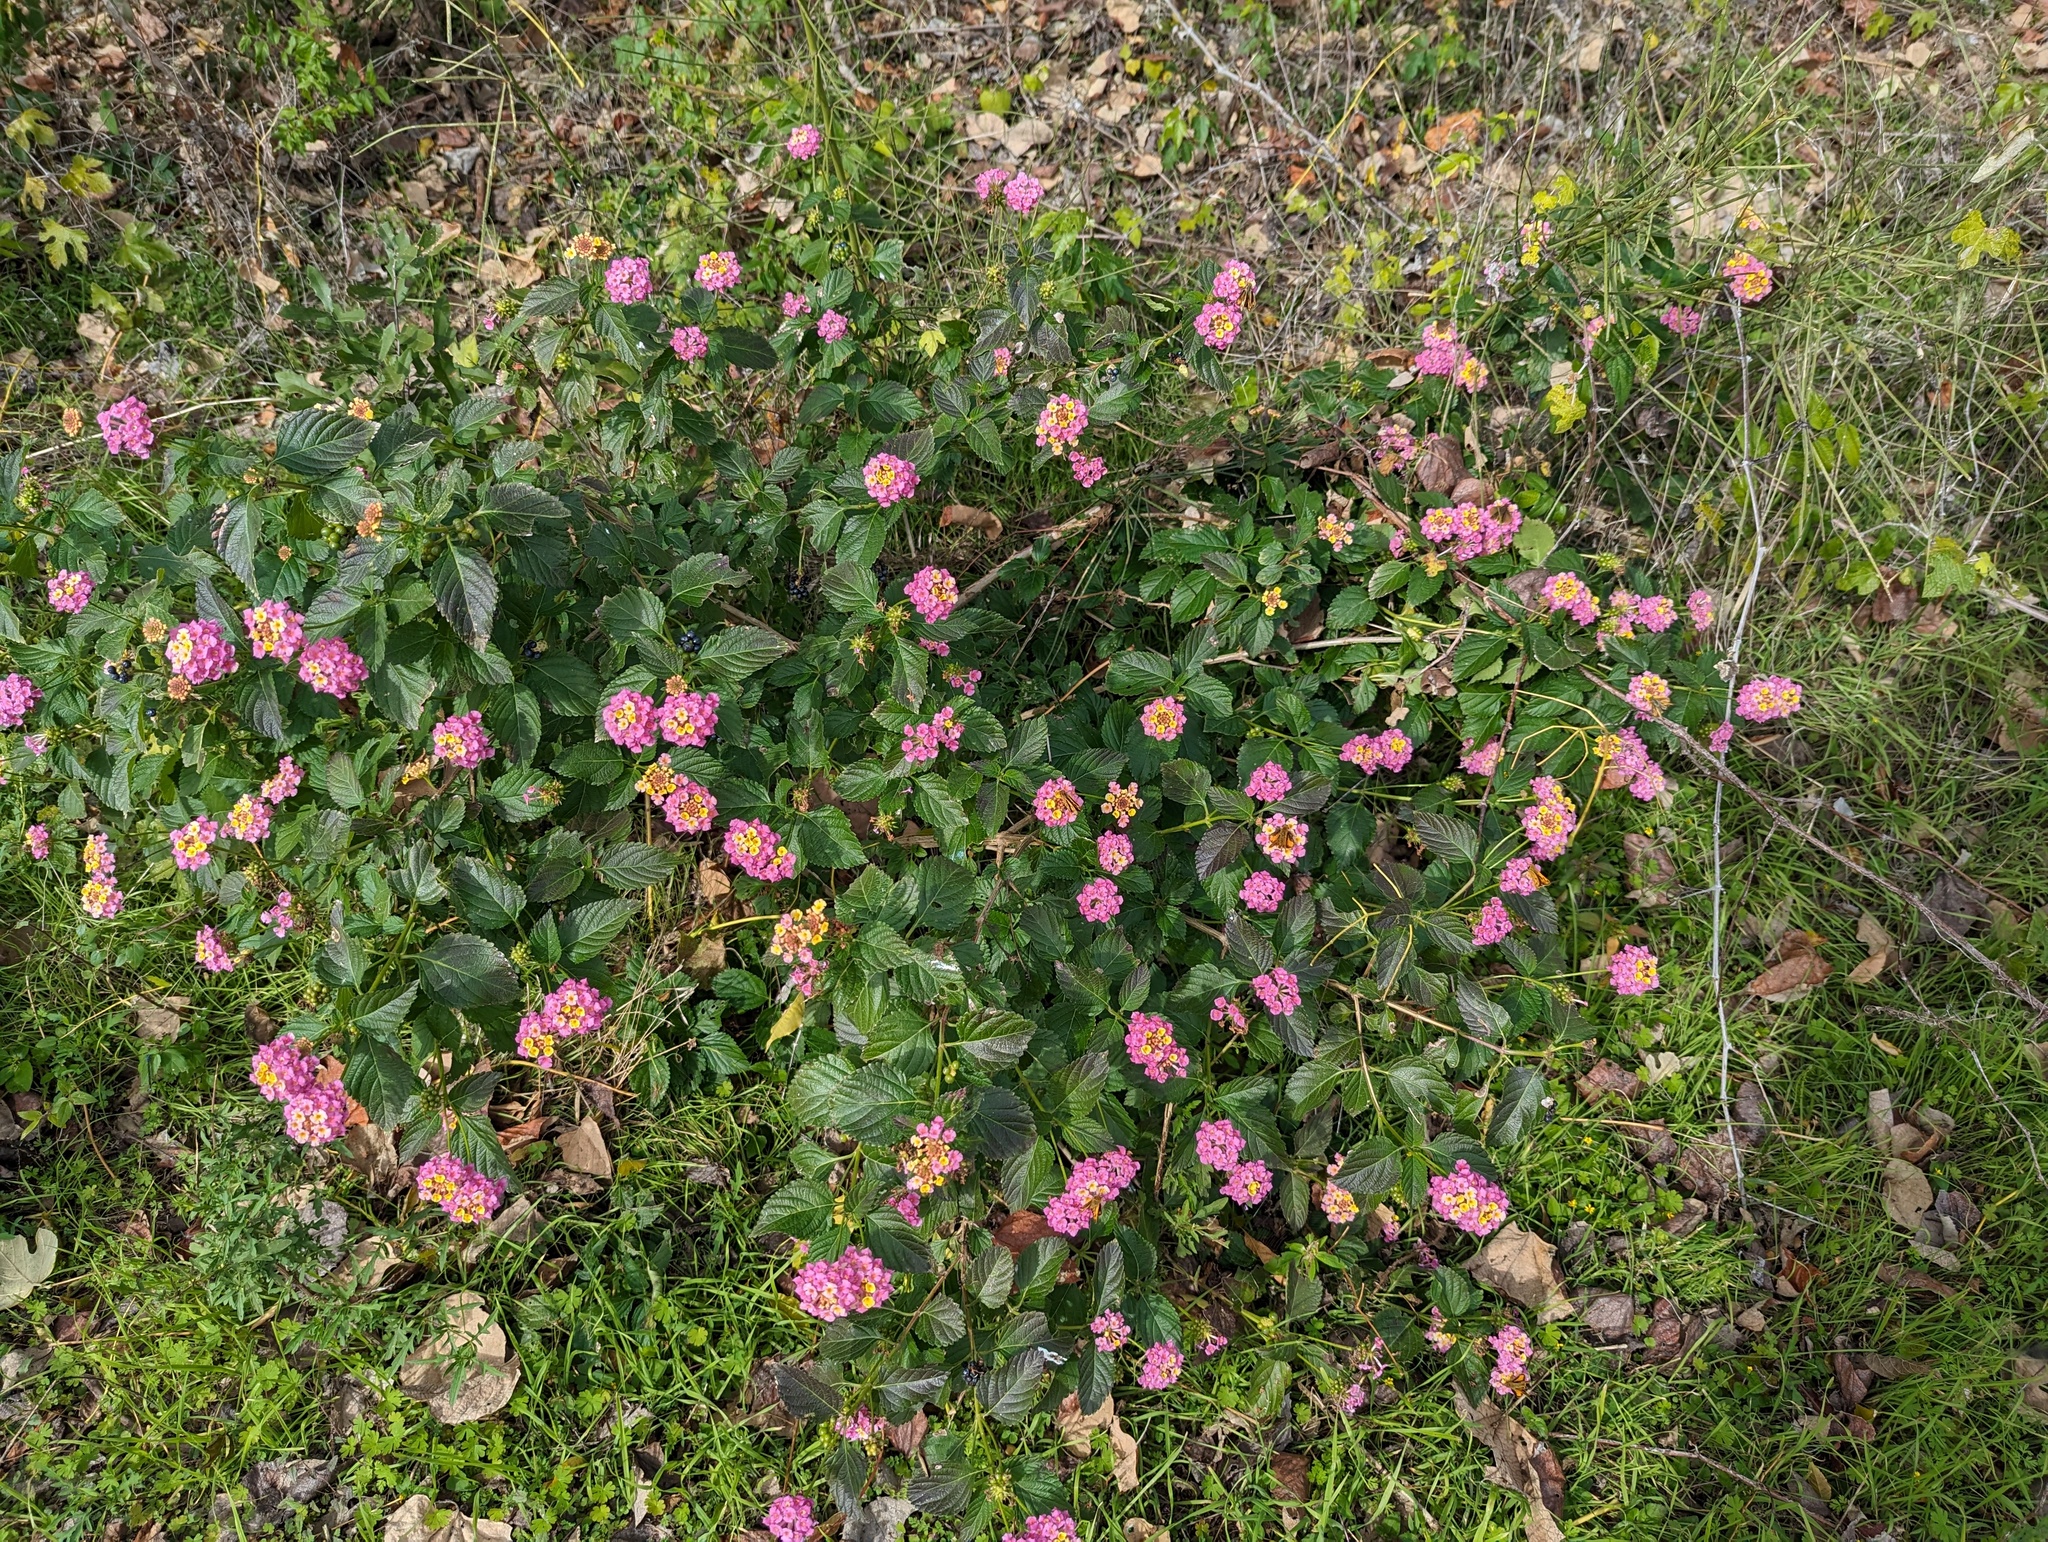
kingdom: Plantae
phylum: Tracheophyta
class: Magnoliopsida
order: Lamiales
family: Verbenaceae
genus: Lantana
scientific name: Lantana strigocamara
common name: Lantana
